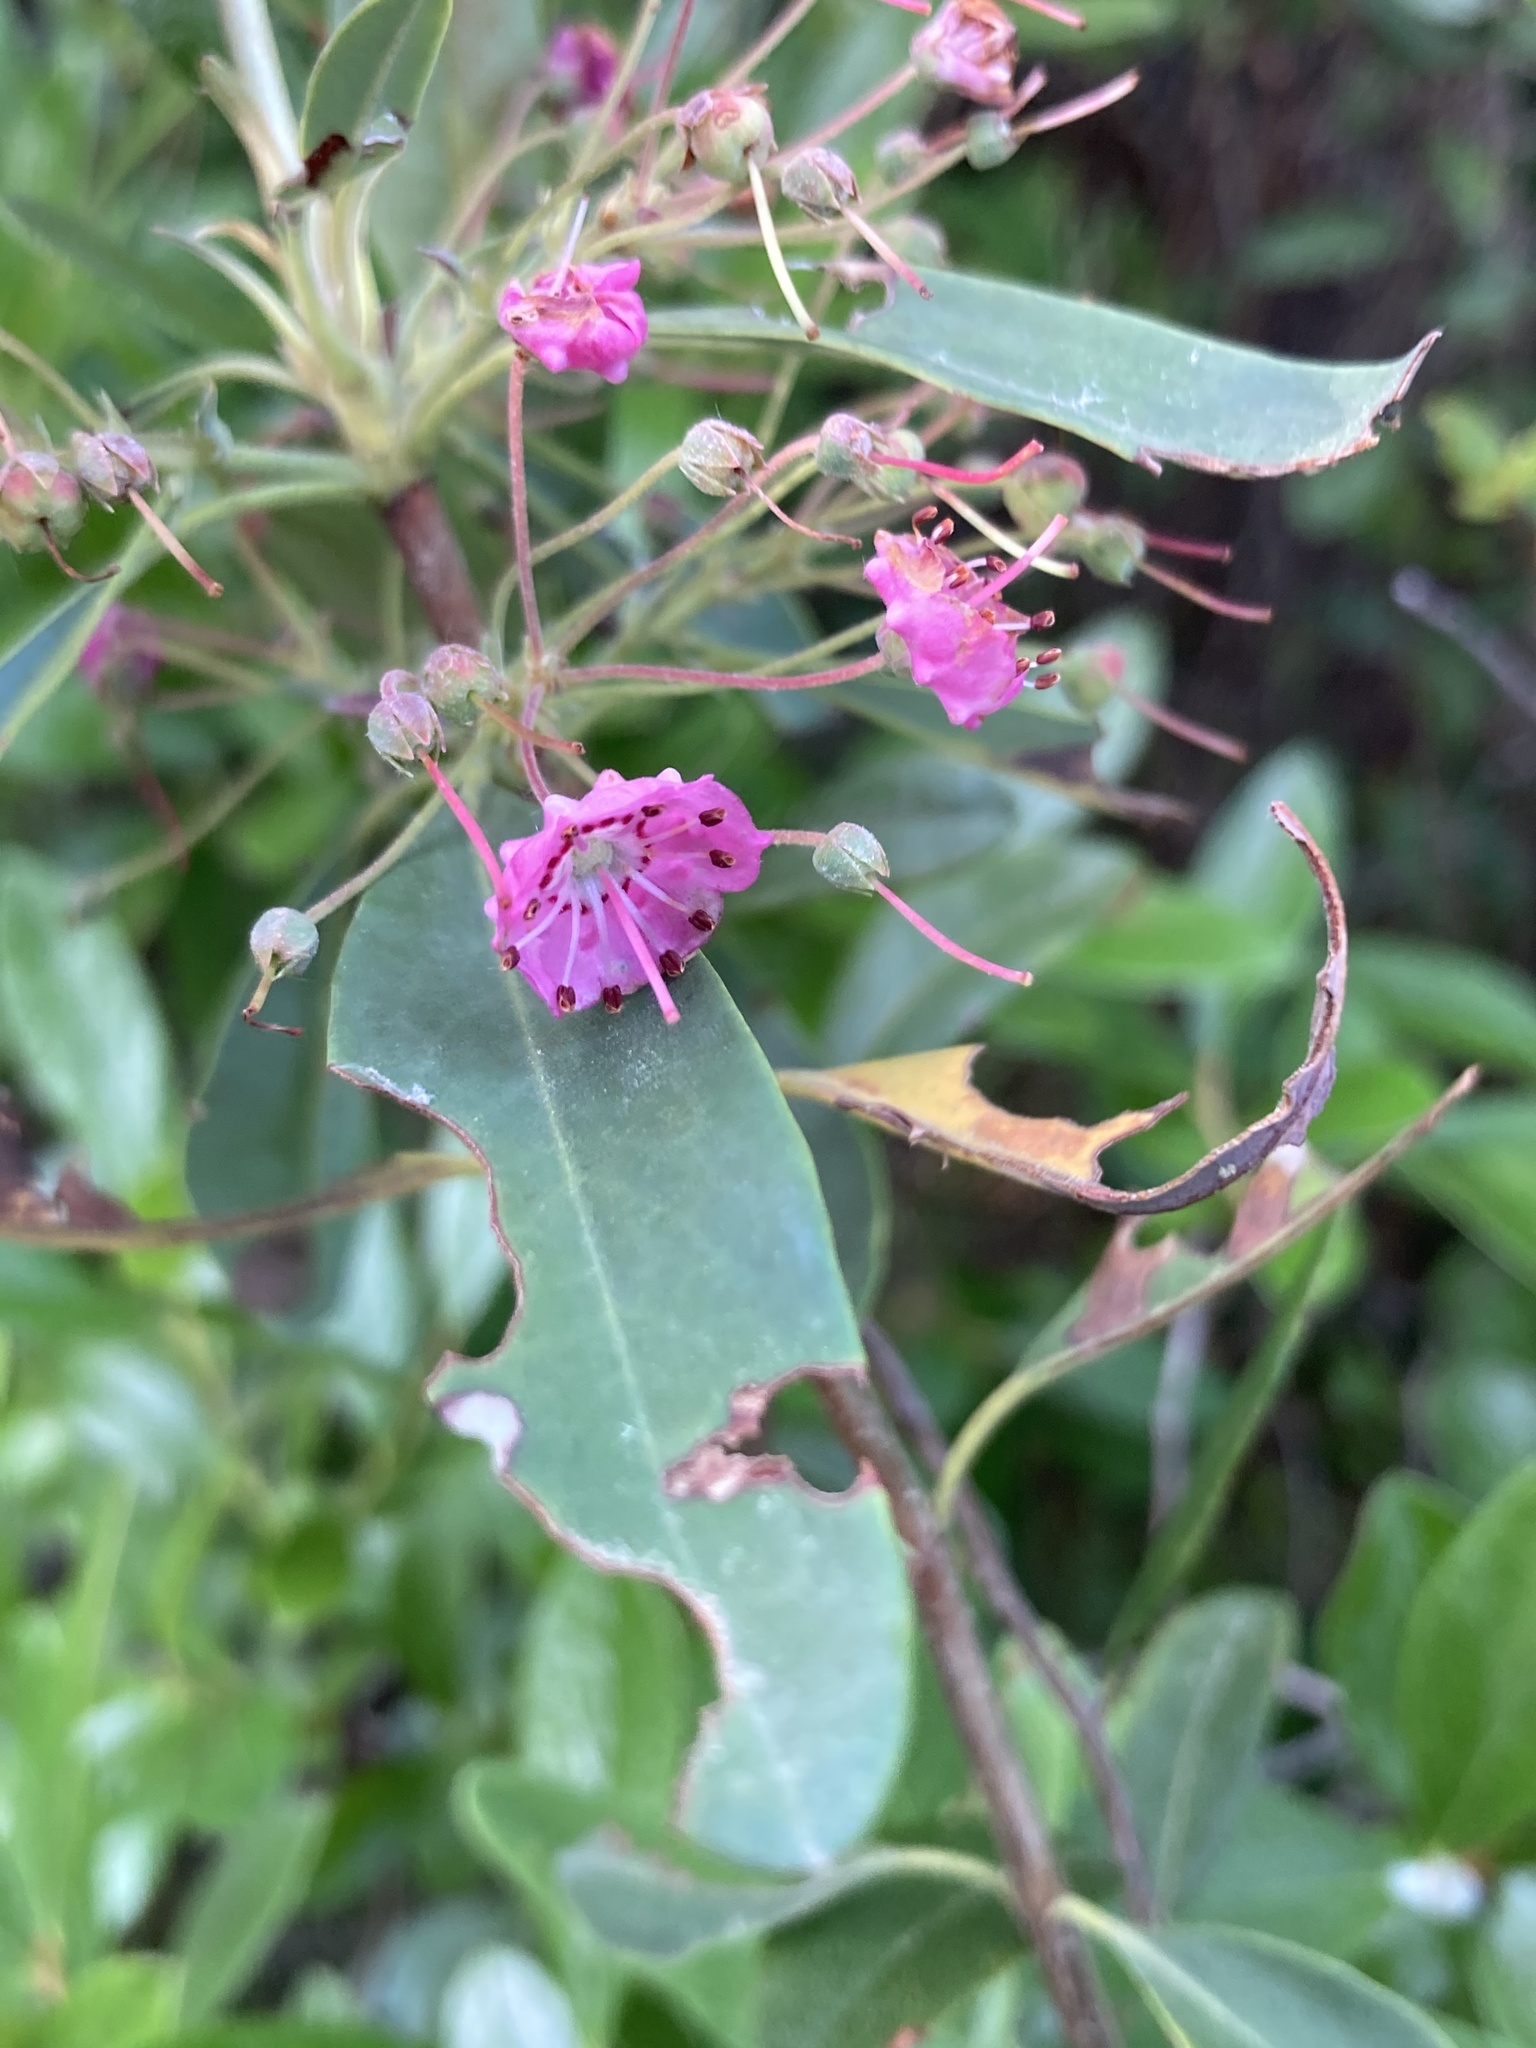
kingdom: Plantae
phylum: Tracheophyta
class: Magnoliopsida
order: Ericales
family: Ericaceae
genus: Kalmia
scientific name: Kalmia angustifolia
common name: Sheep-laurel
